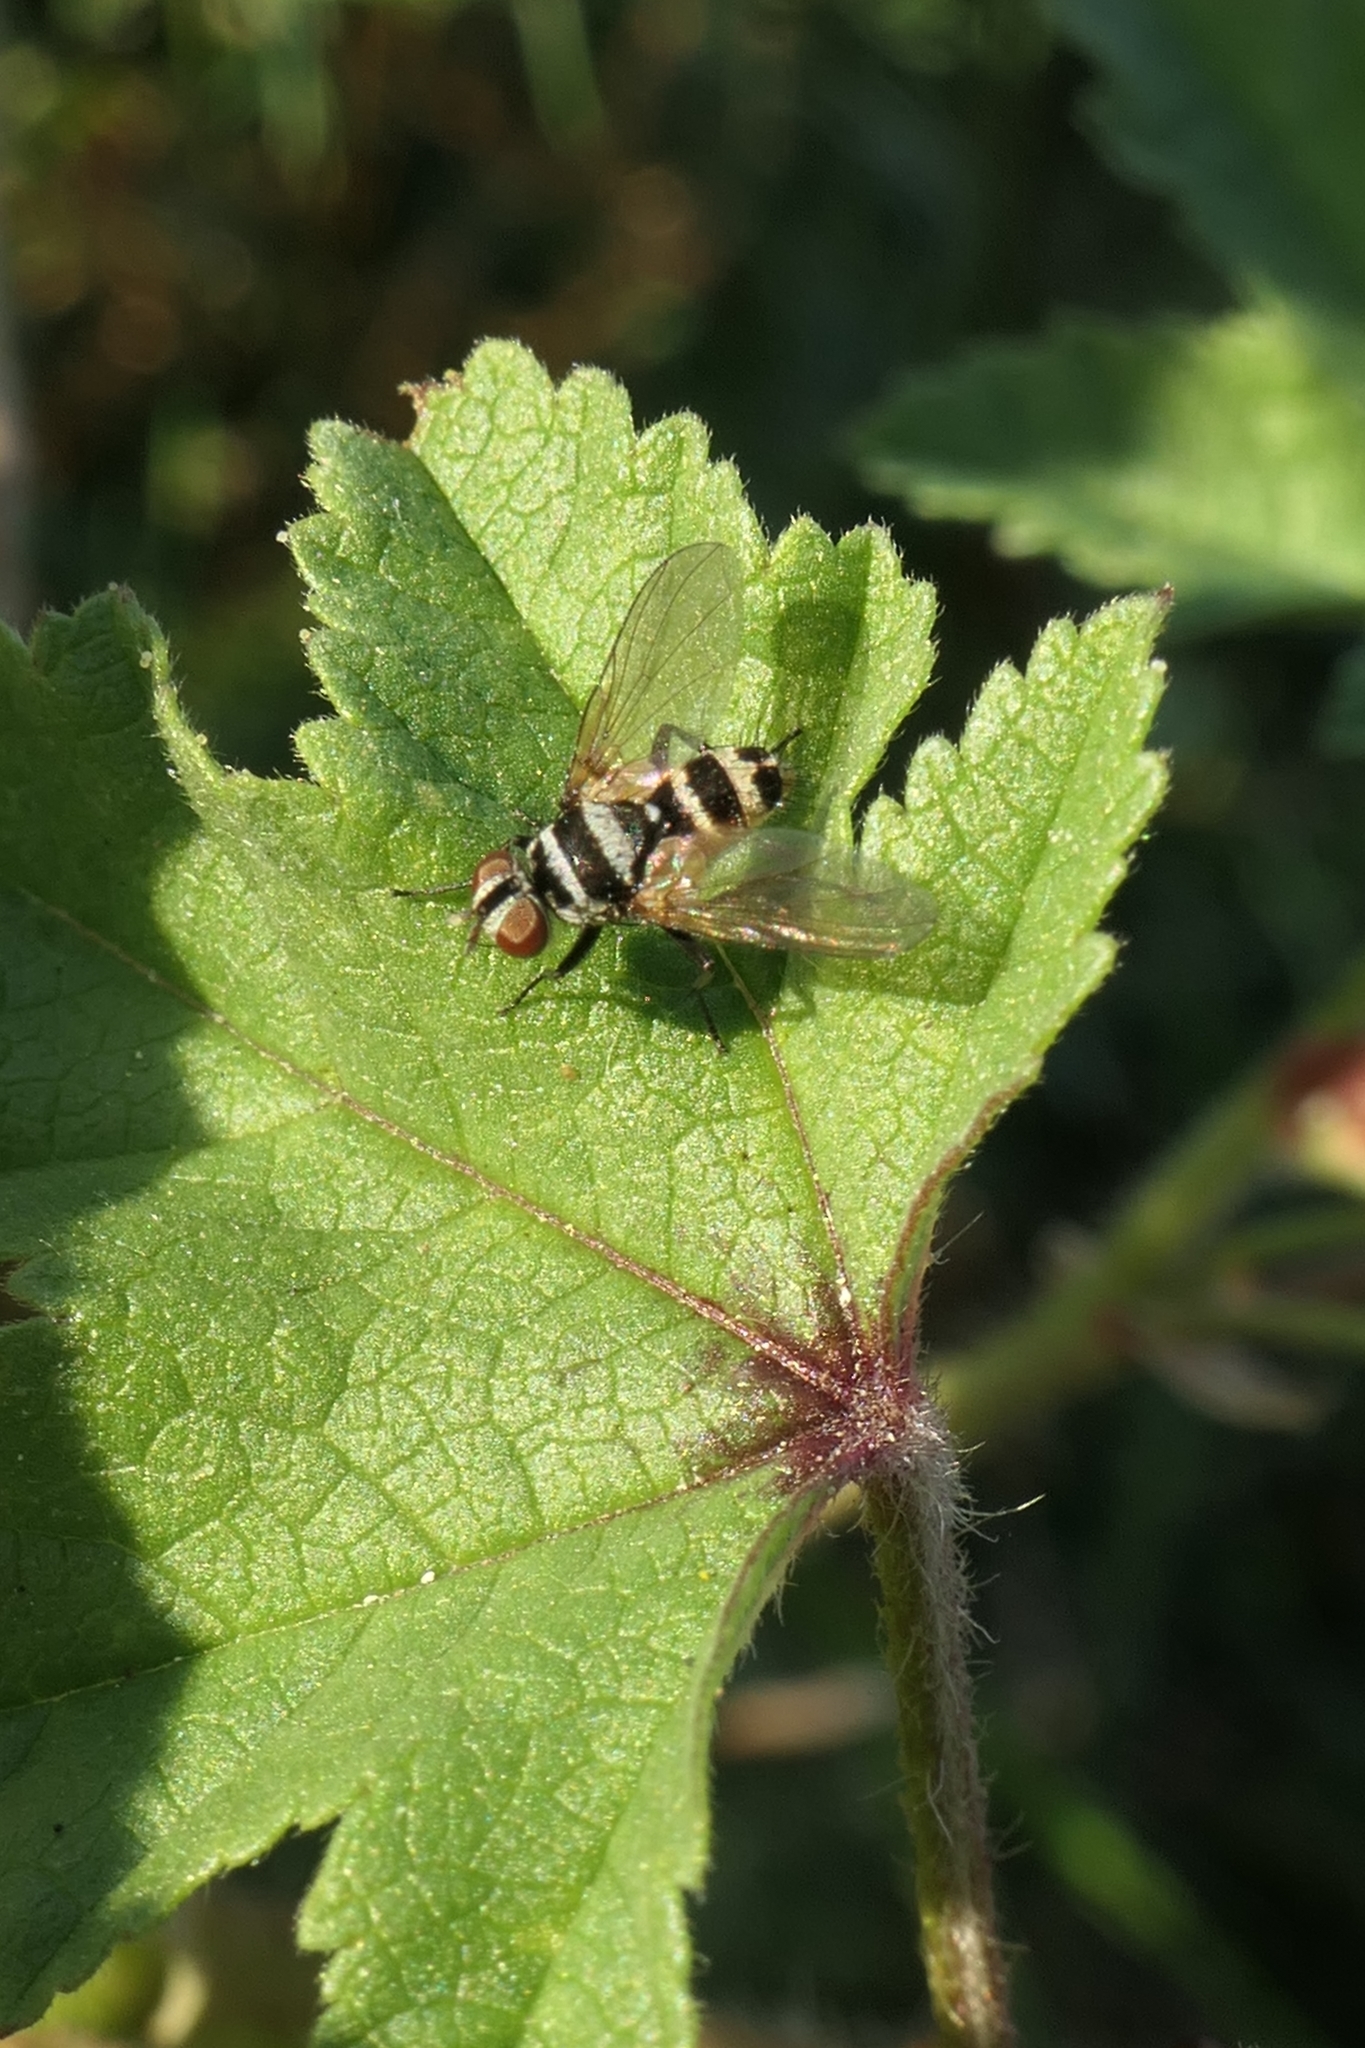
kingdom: Animalia
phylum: Arthropoda
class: Insecta
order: Diptera
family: Tachinidae
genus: Trigonospila
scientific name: Trigonospila brevifacies
